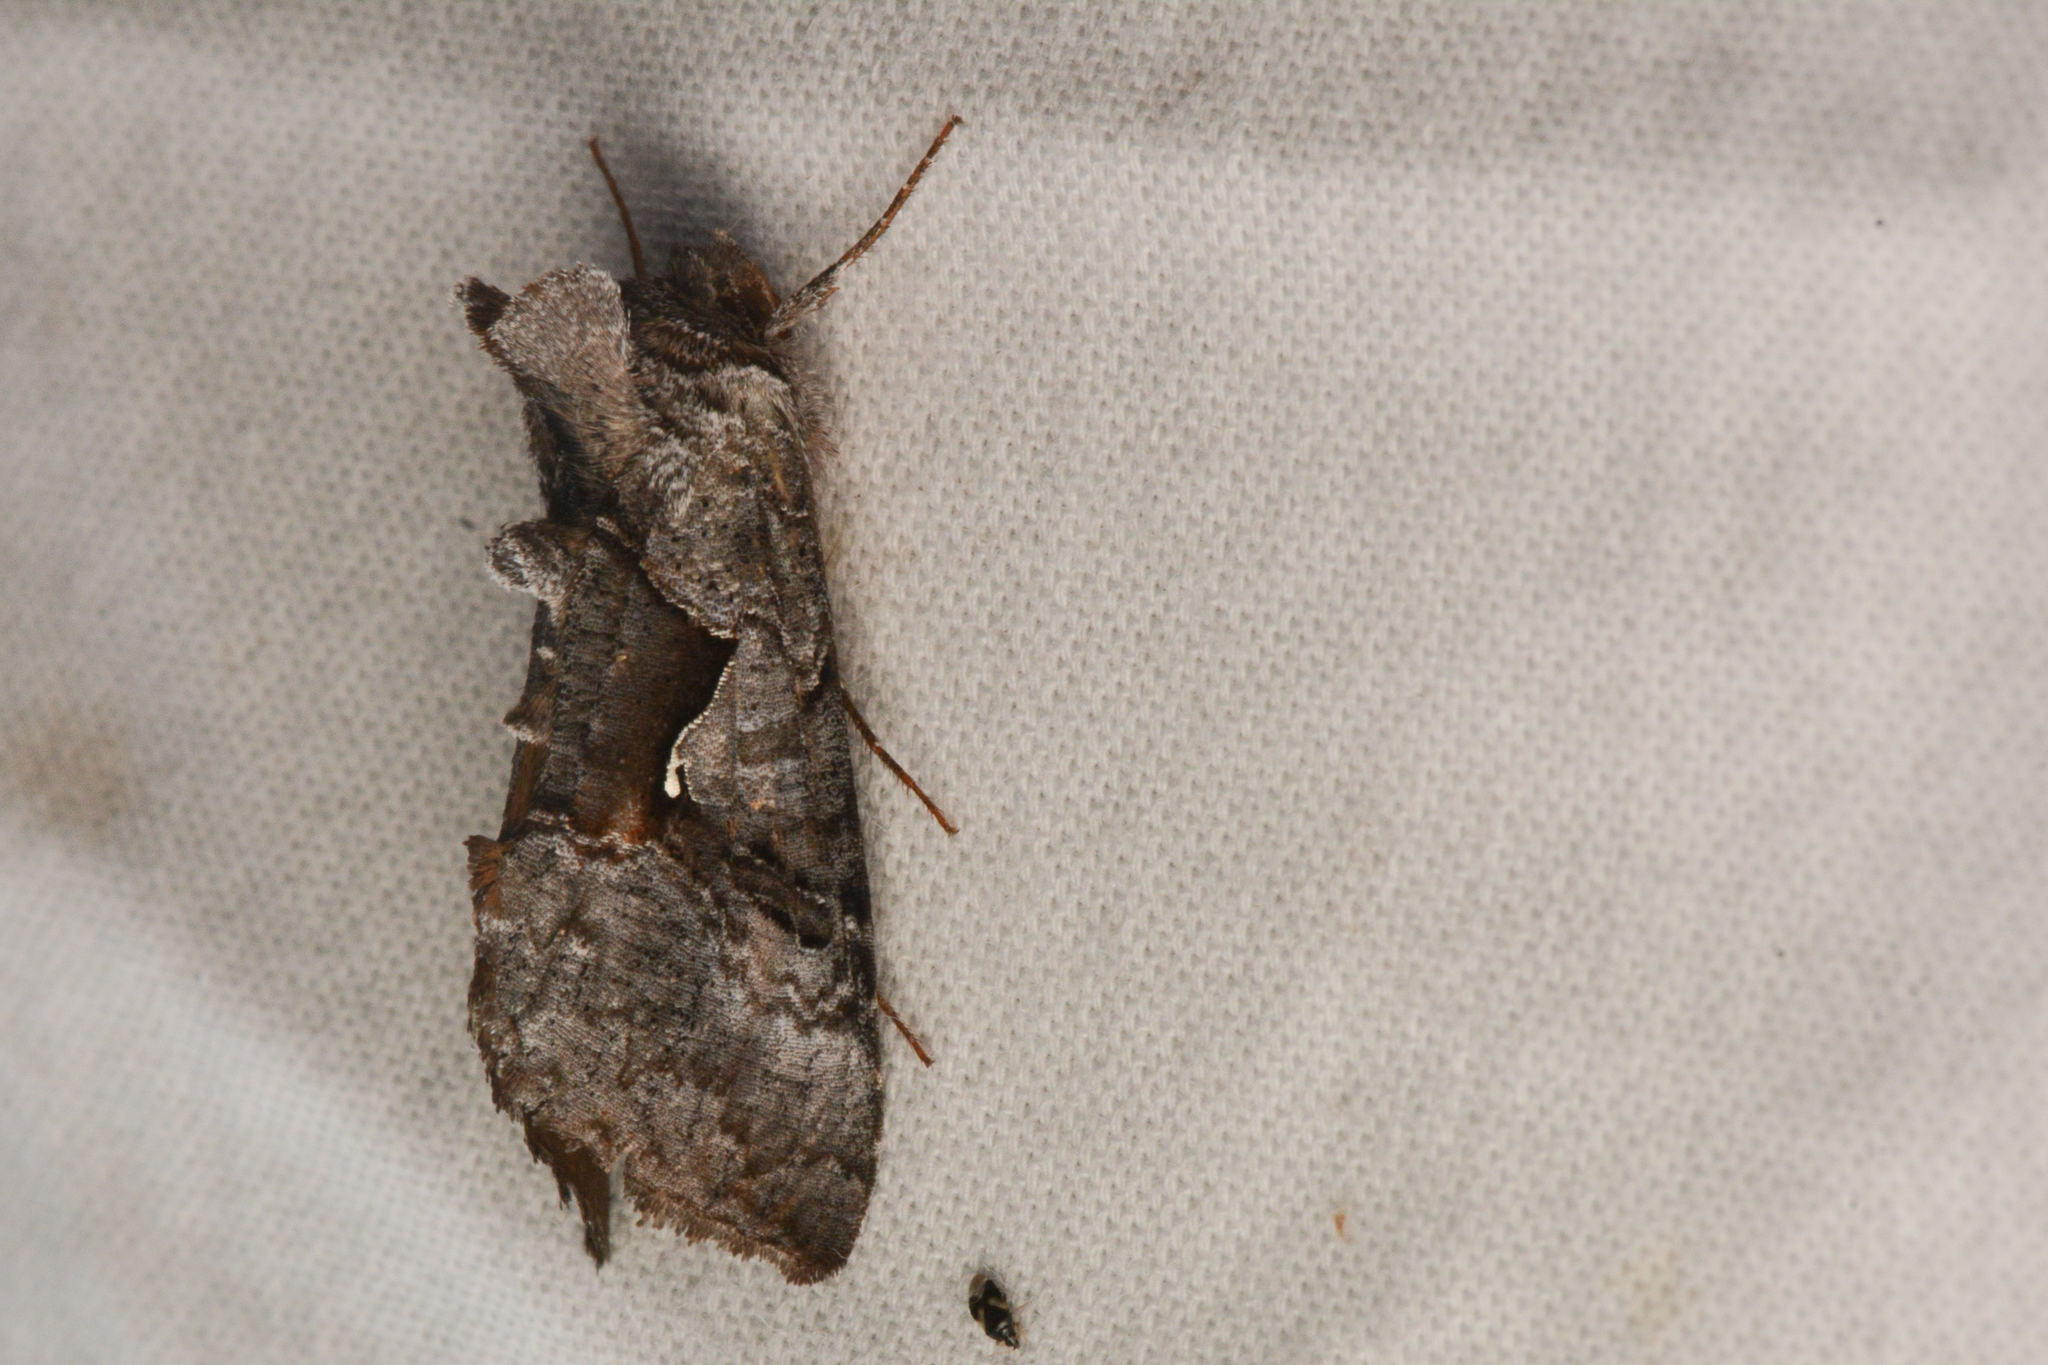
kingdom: Animalia
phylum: Arthropoda
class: Insecta
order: Lepidoptera
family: Noctuidae
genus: Syngrapha
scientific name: Syngrapha epigaea
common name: Epigaea looper moth
